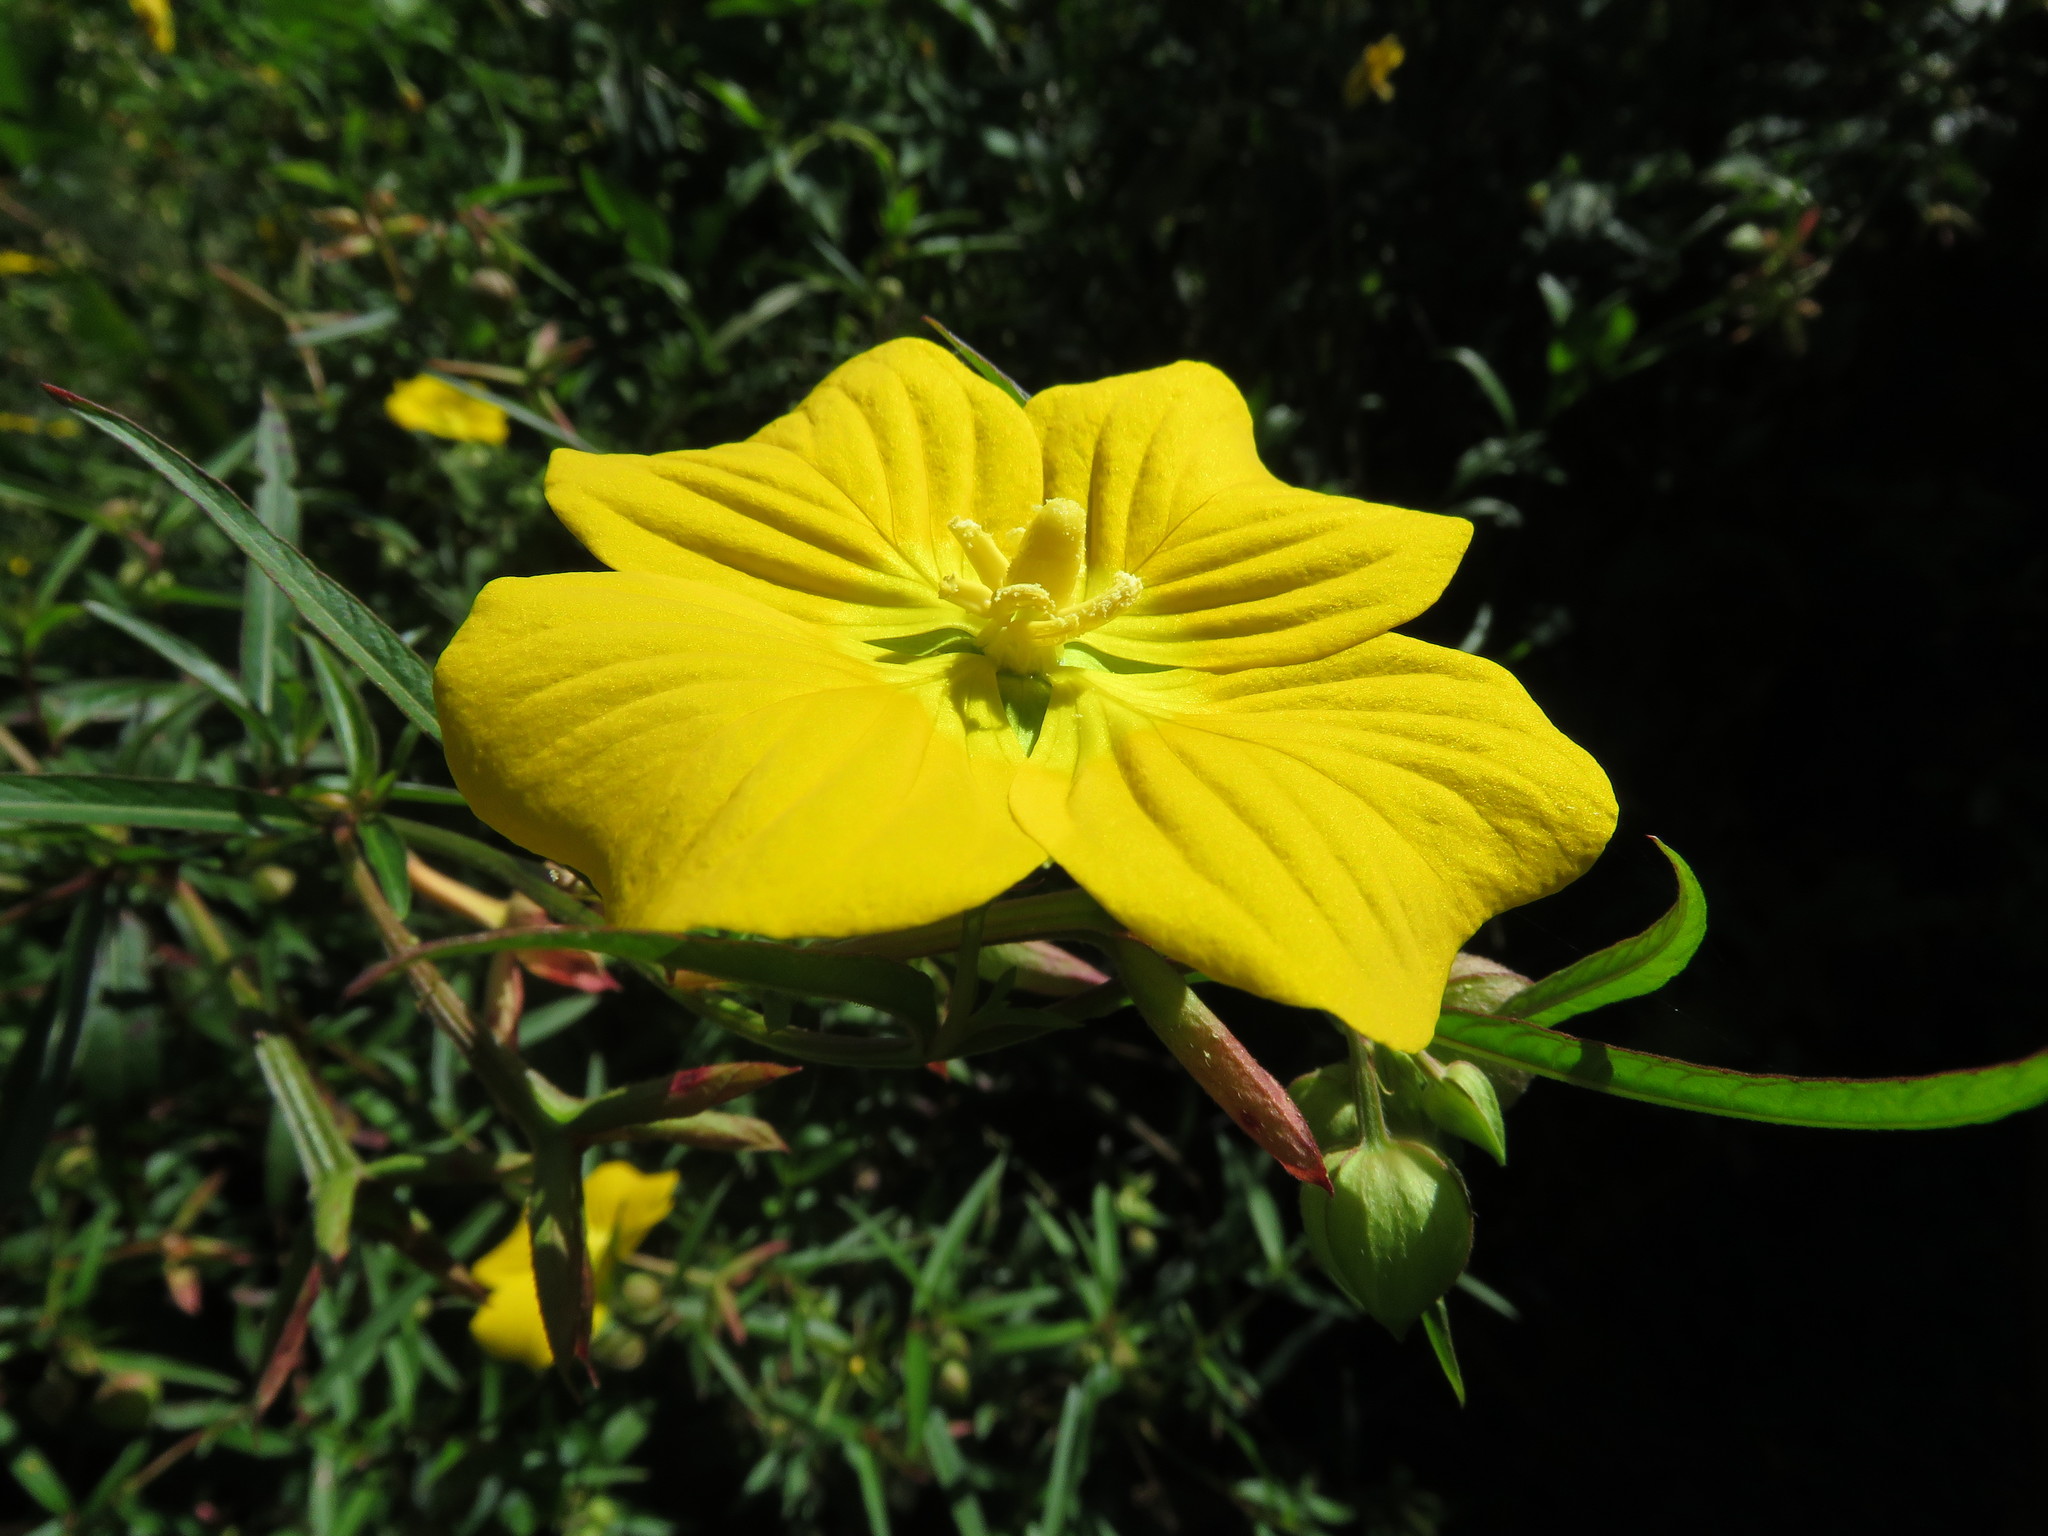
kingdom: Plantae
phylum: Tracheophyta
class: Magnoliopsida
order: Myrtales
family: Onagraceae
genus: Ludwigia
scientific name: Ludwigia bonariensis
